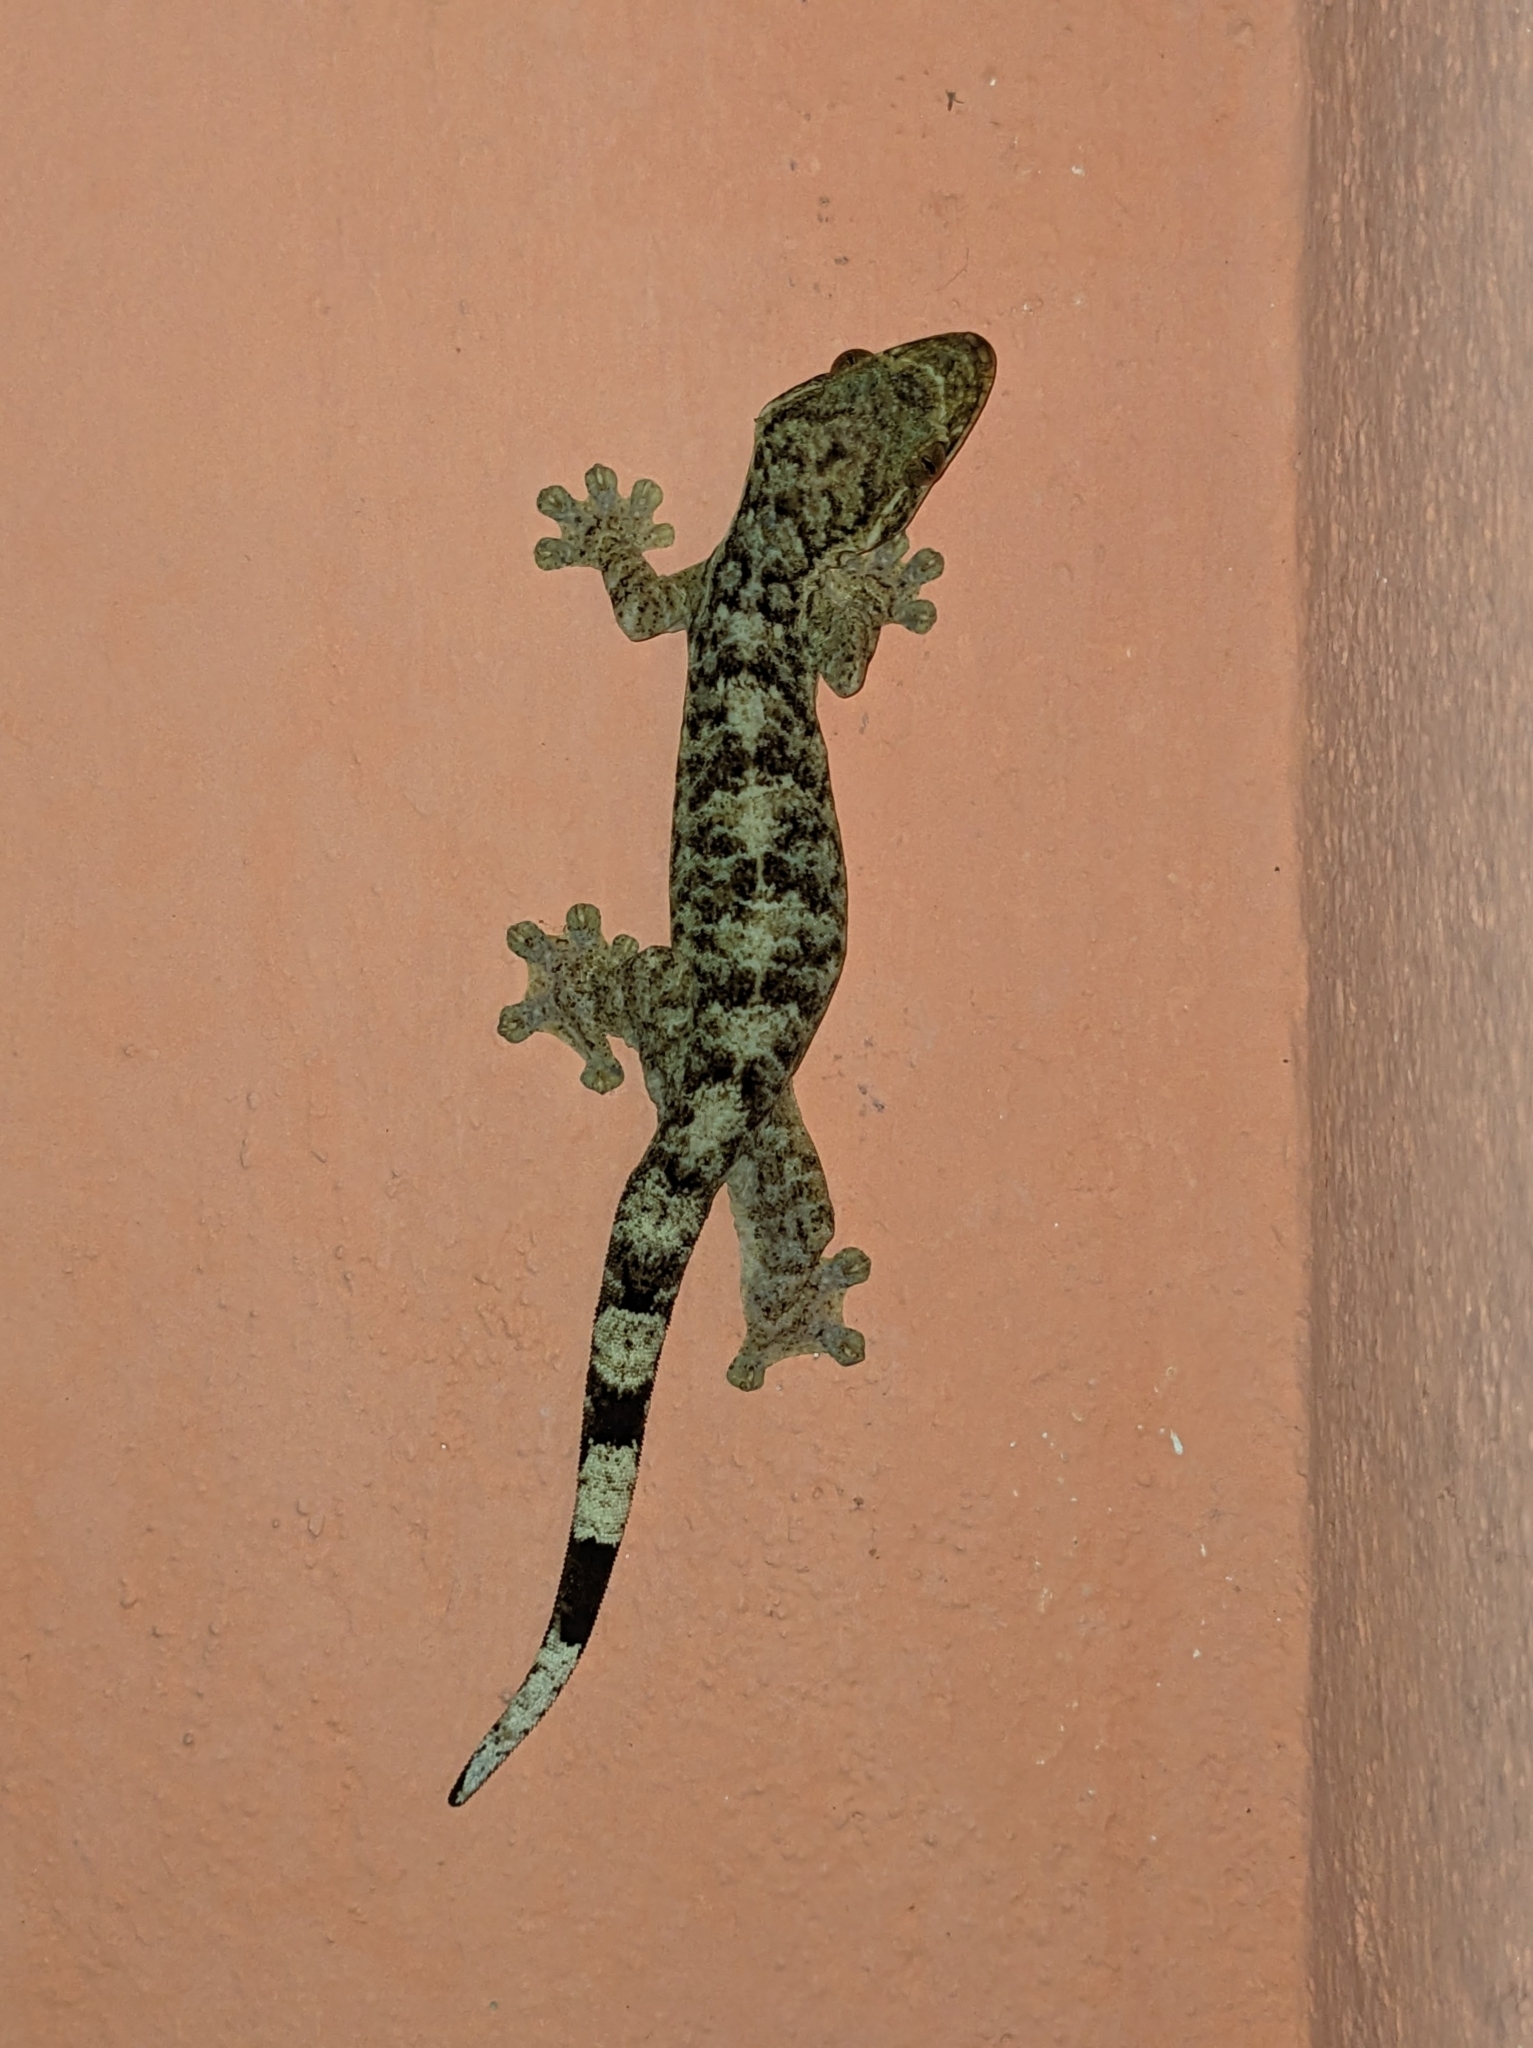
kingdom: Animalia
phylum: Chordata
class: Squamata
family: Phyllodactylidae
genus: Thecadactylus
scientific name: Thecadactylus rapicauda
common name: Turnip-tailed gecko
